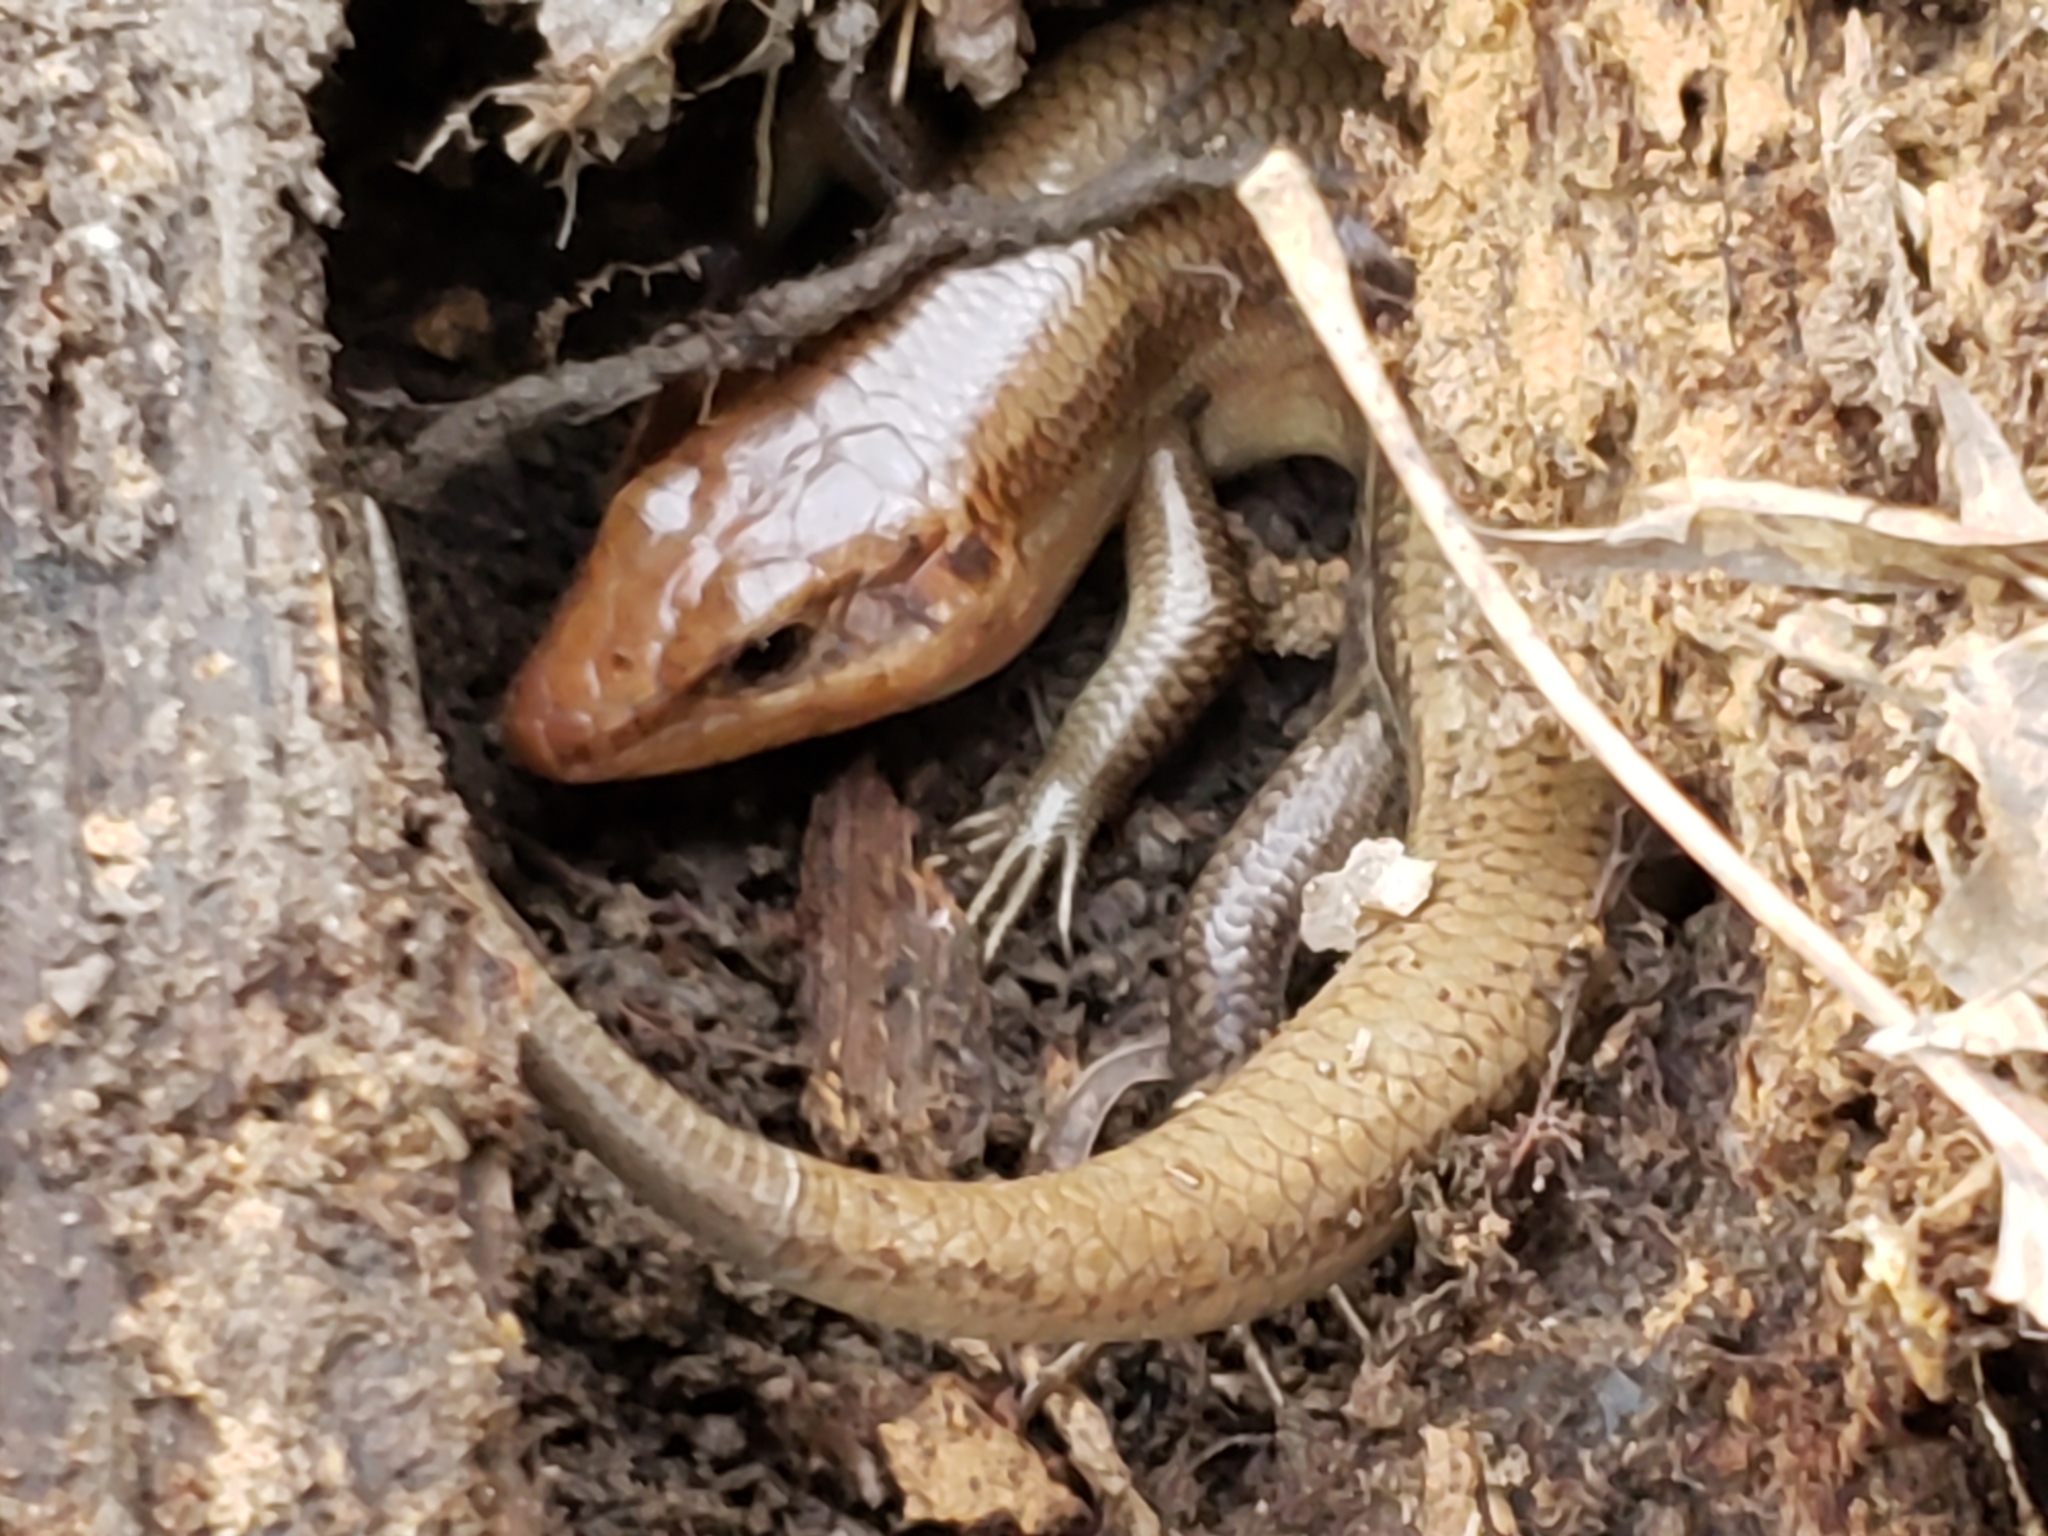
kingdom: Animalia
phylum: Chordata
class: Squamata
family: Scincidae
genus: Plestiodon
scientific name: Plestiodon laticeps
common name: Broadhead skink
